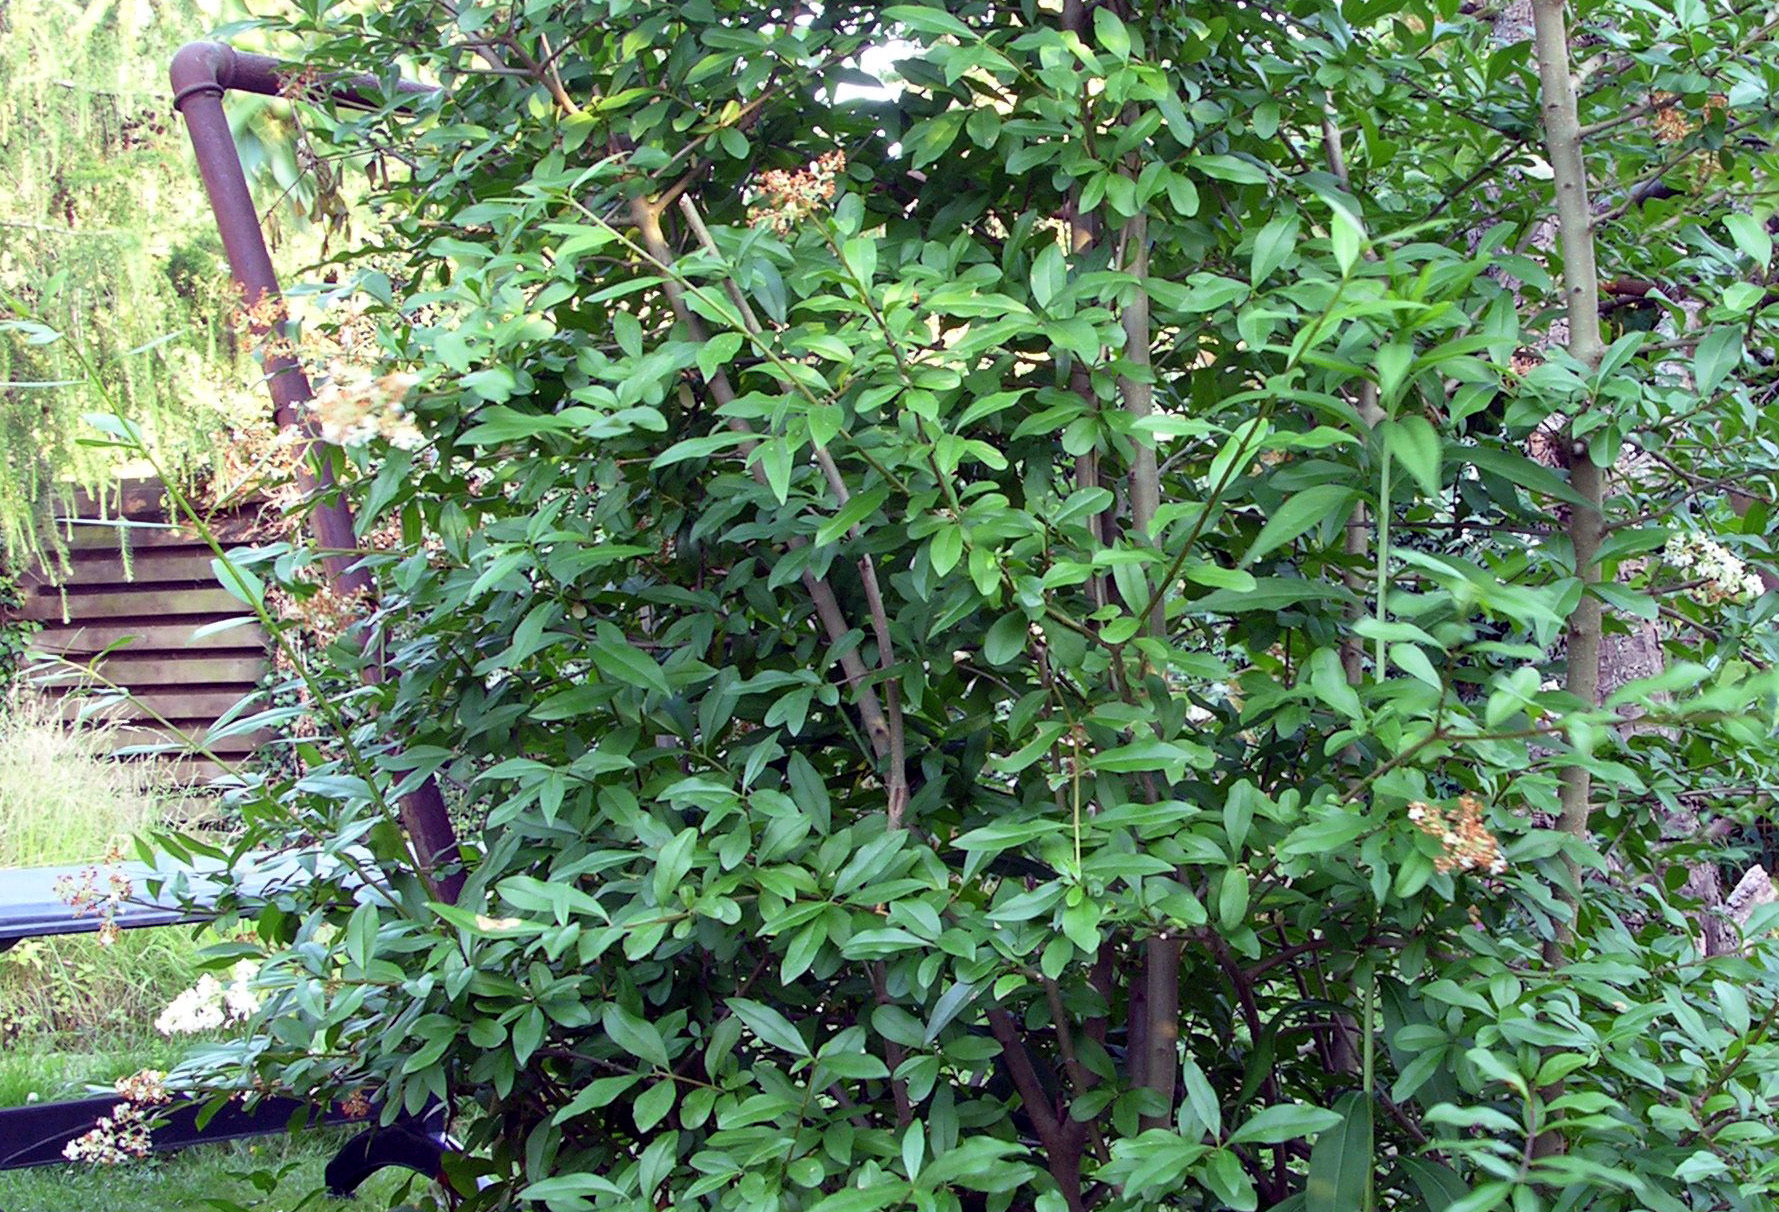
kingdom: Plantae
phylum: Tracheophyta
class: Magnoliopsida
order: Lamiales
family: Oleaceae
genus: Ligustrum
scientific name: Ligustrum vulgare
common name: Wild privet
